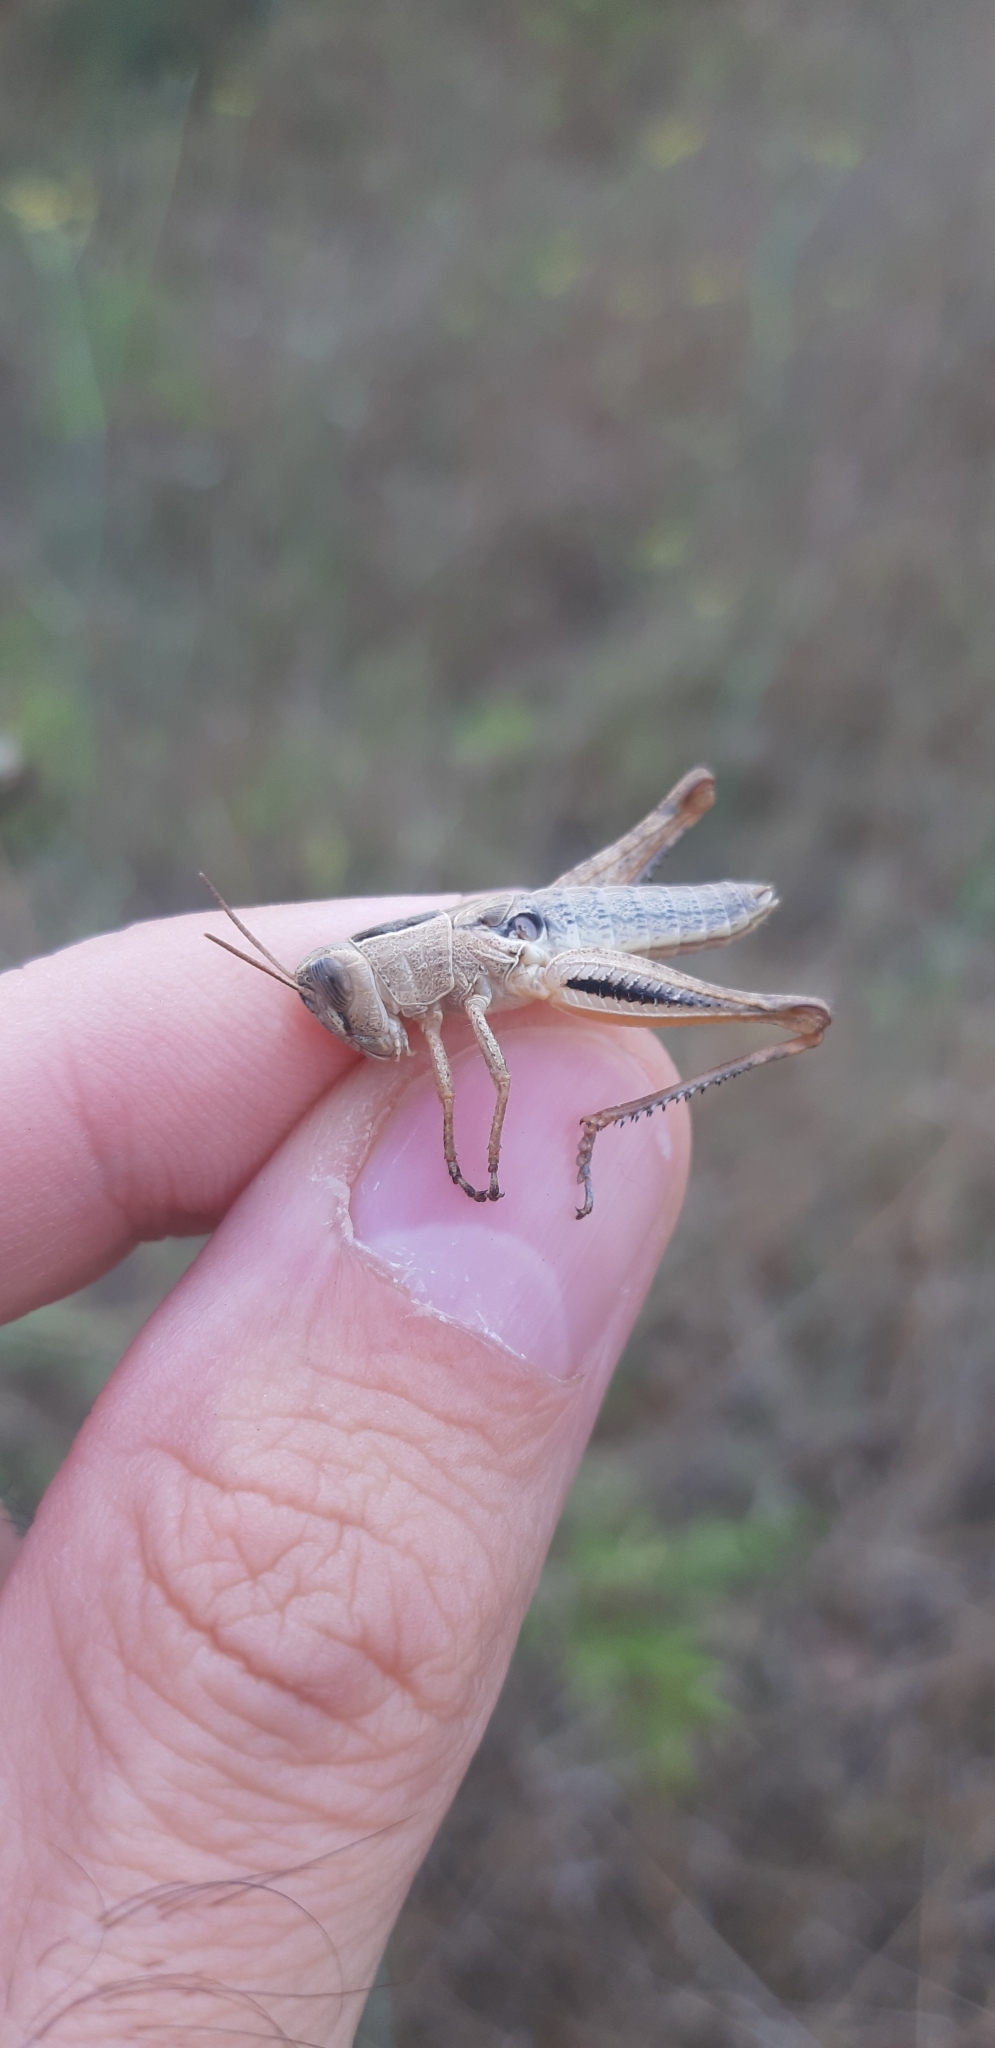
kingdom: Animalia
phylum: Arthropoda
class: Insecta
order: Orthoptera
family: Acrididae
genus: Eyprepocnemis
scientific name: Eyprepocnemis plorans
